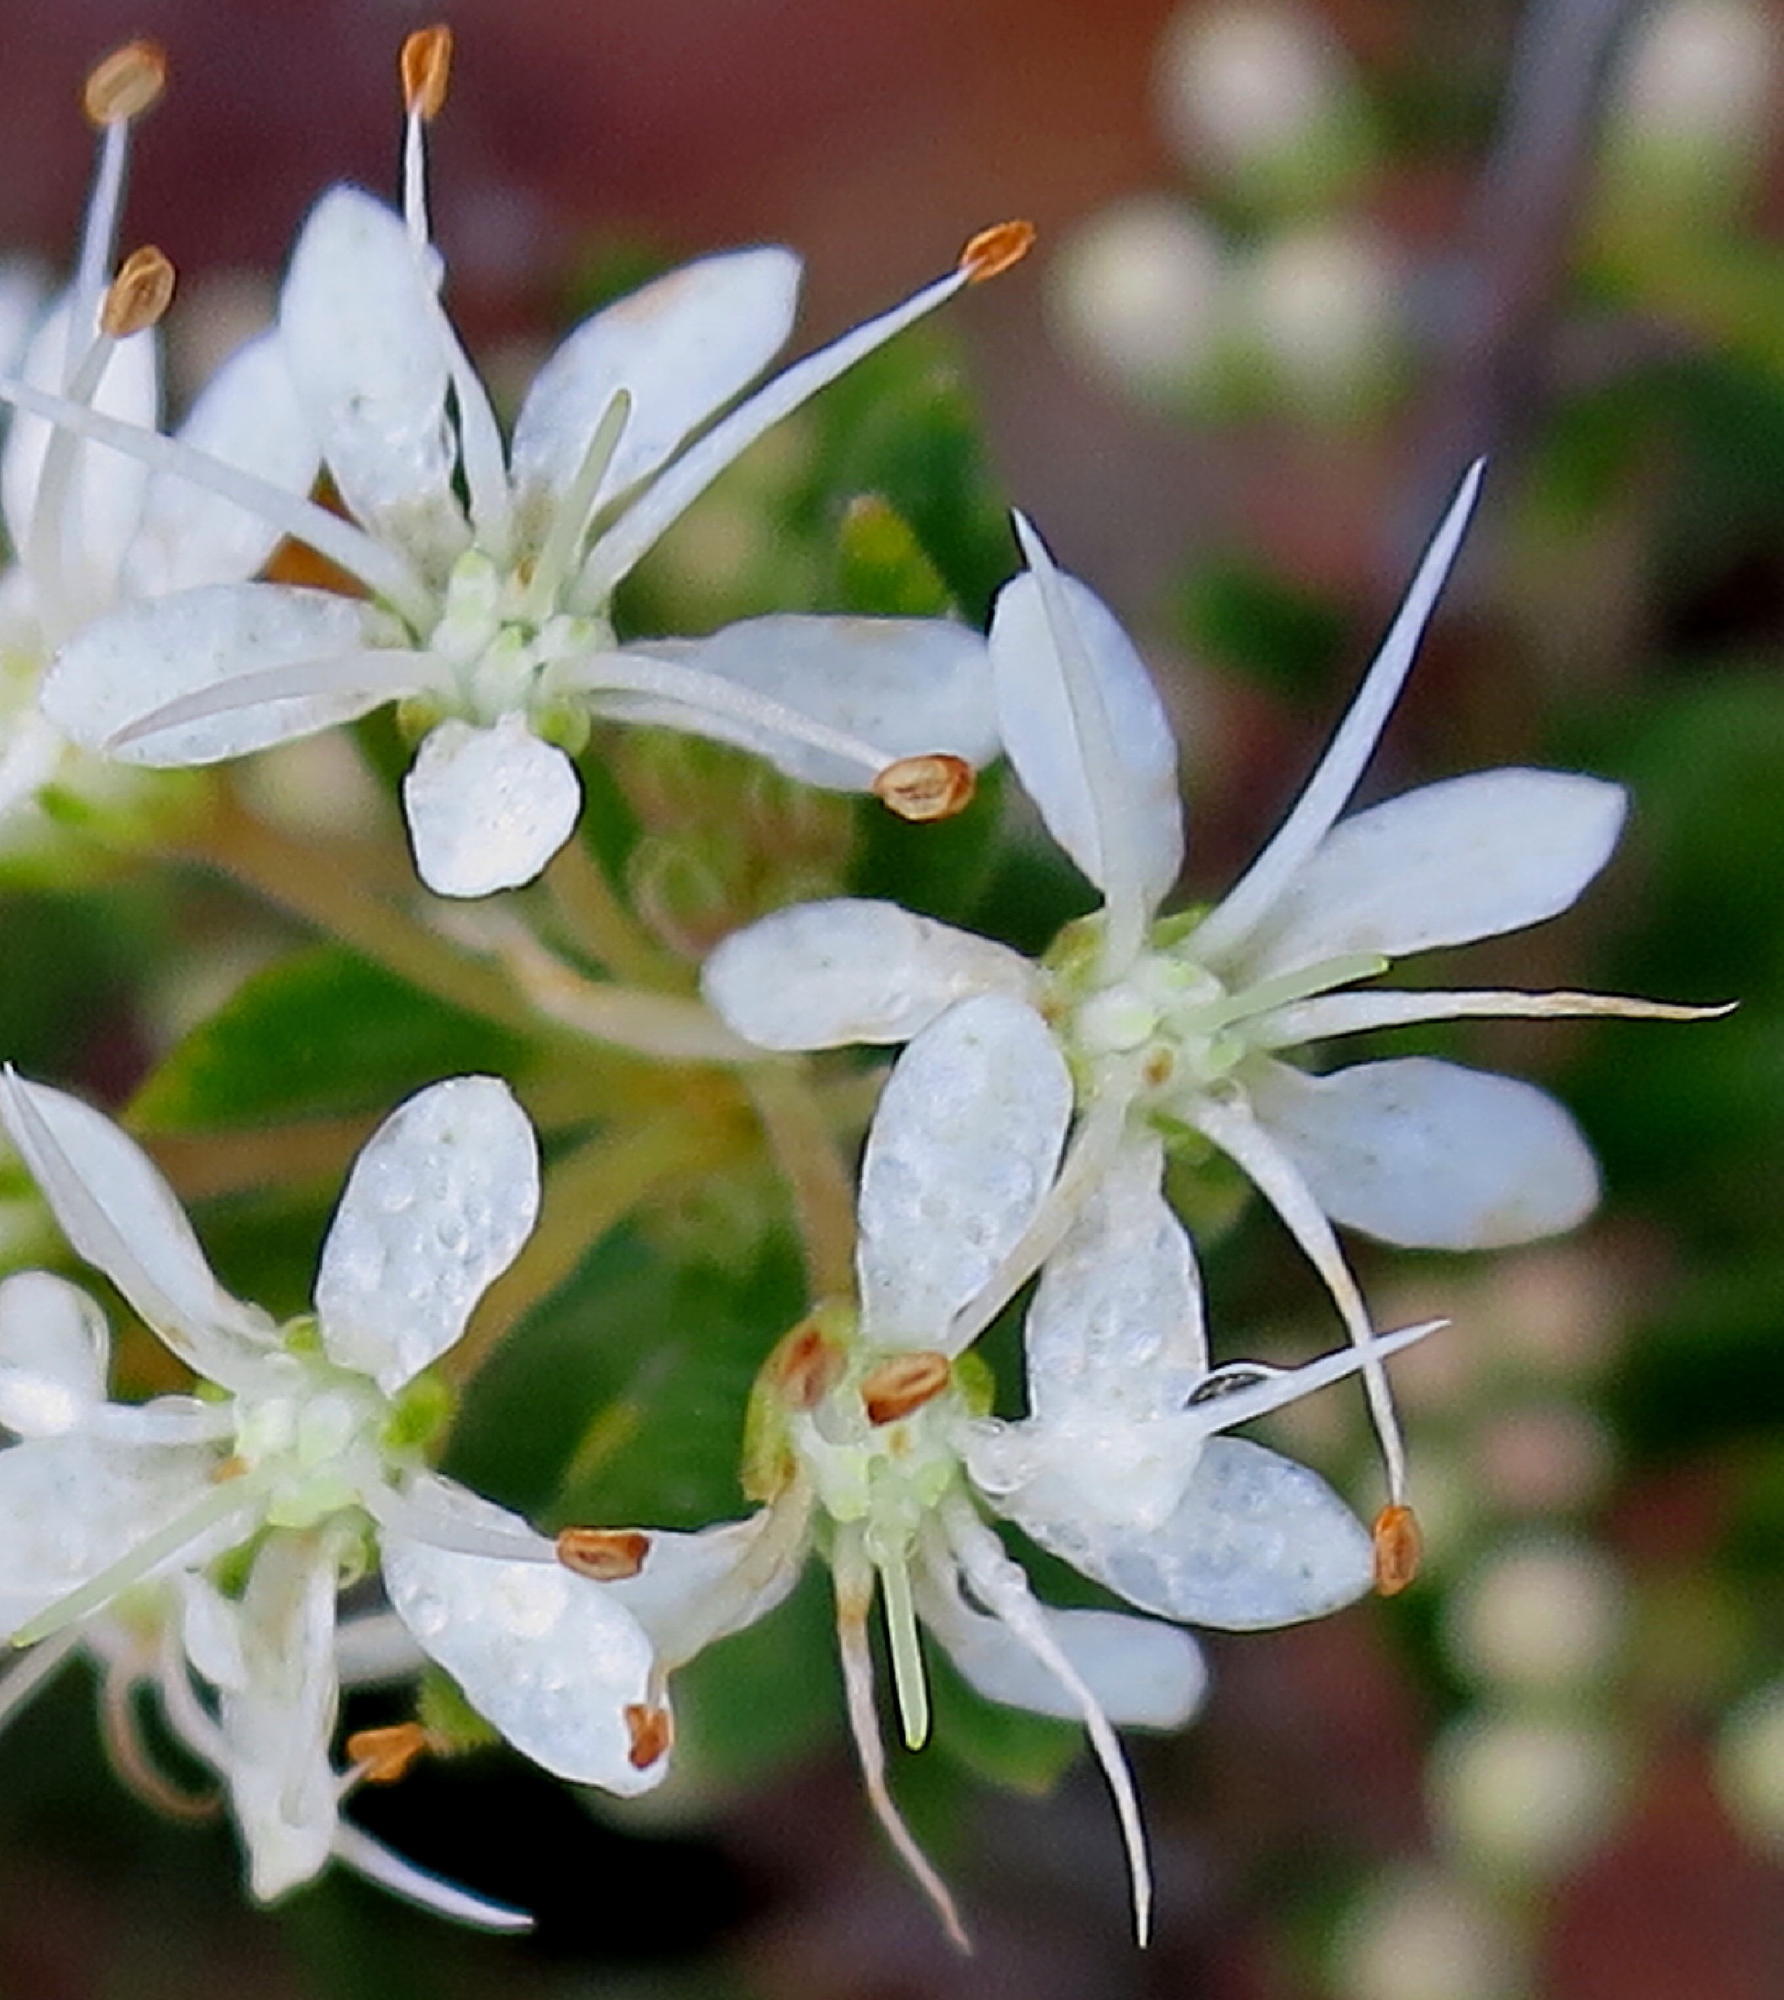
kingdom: Plantae
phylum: Tracheophyta
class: Magnoliopsida
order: Sapindales
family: Rutaceae
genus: Agathosma
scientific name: Agathosma mundtii
